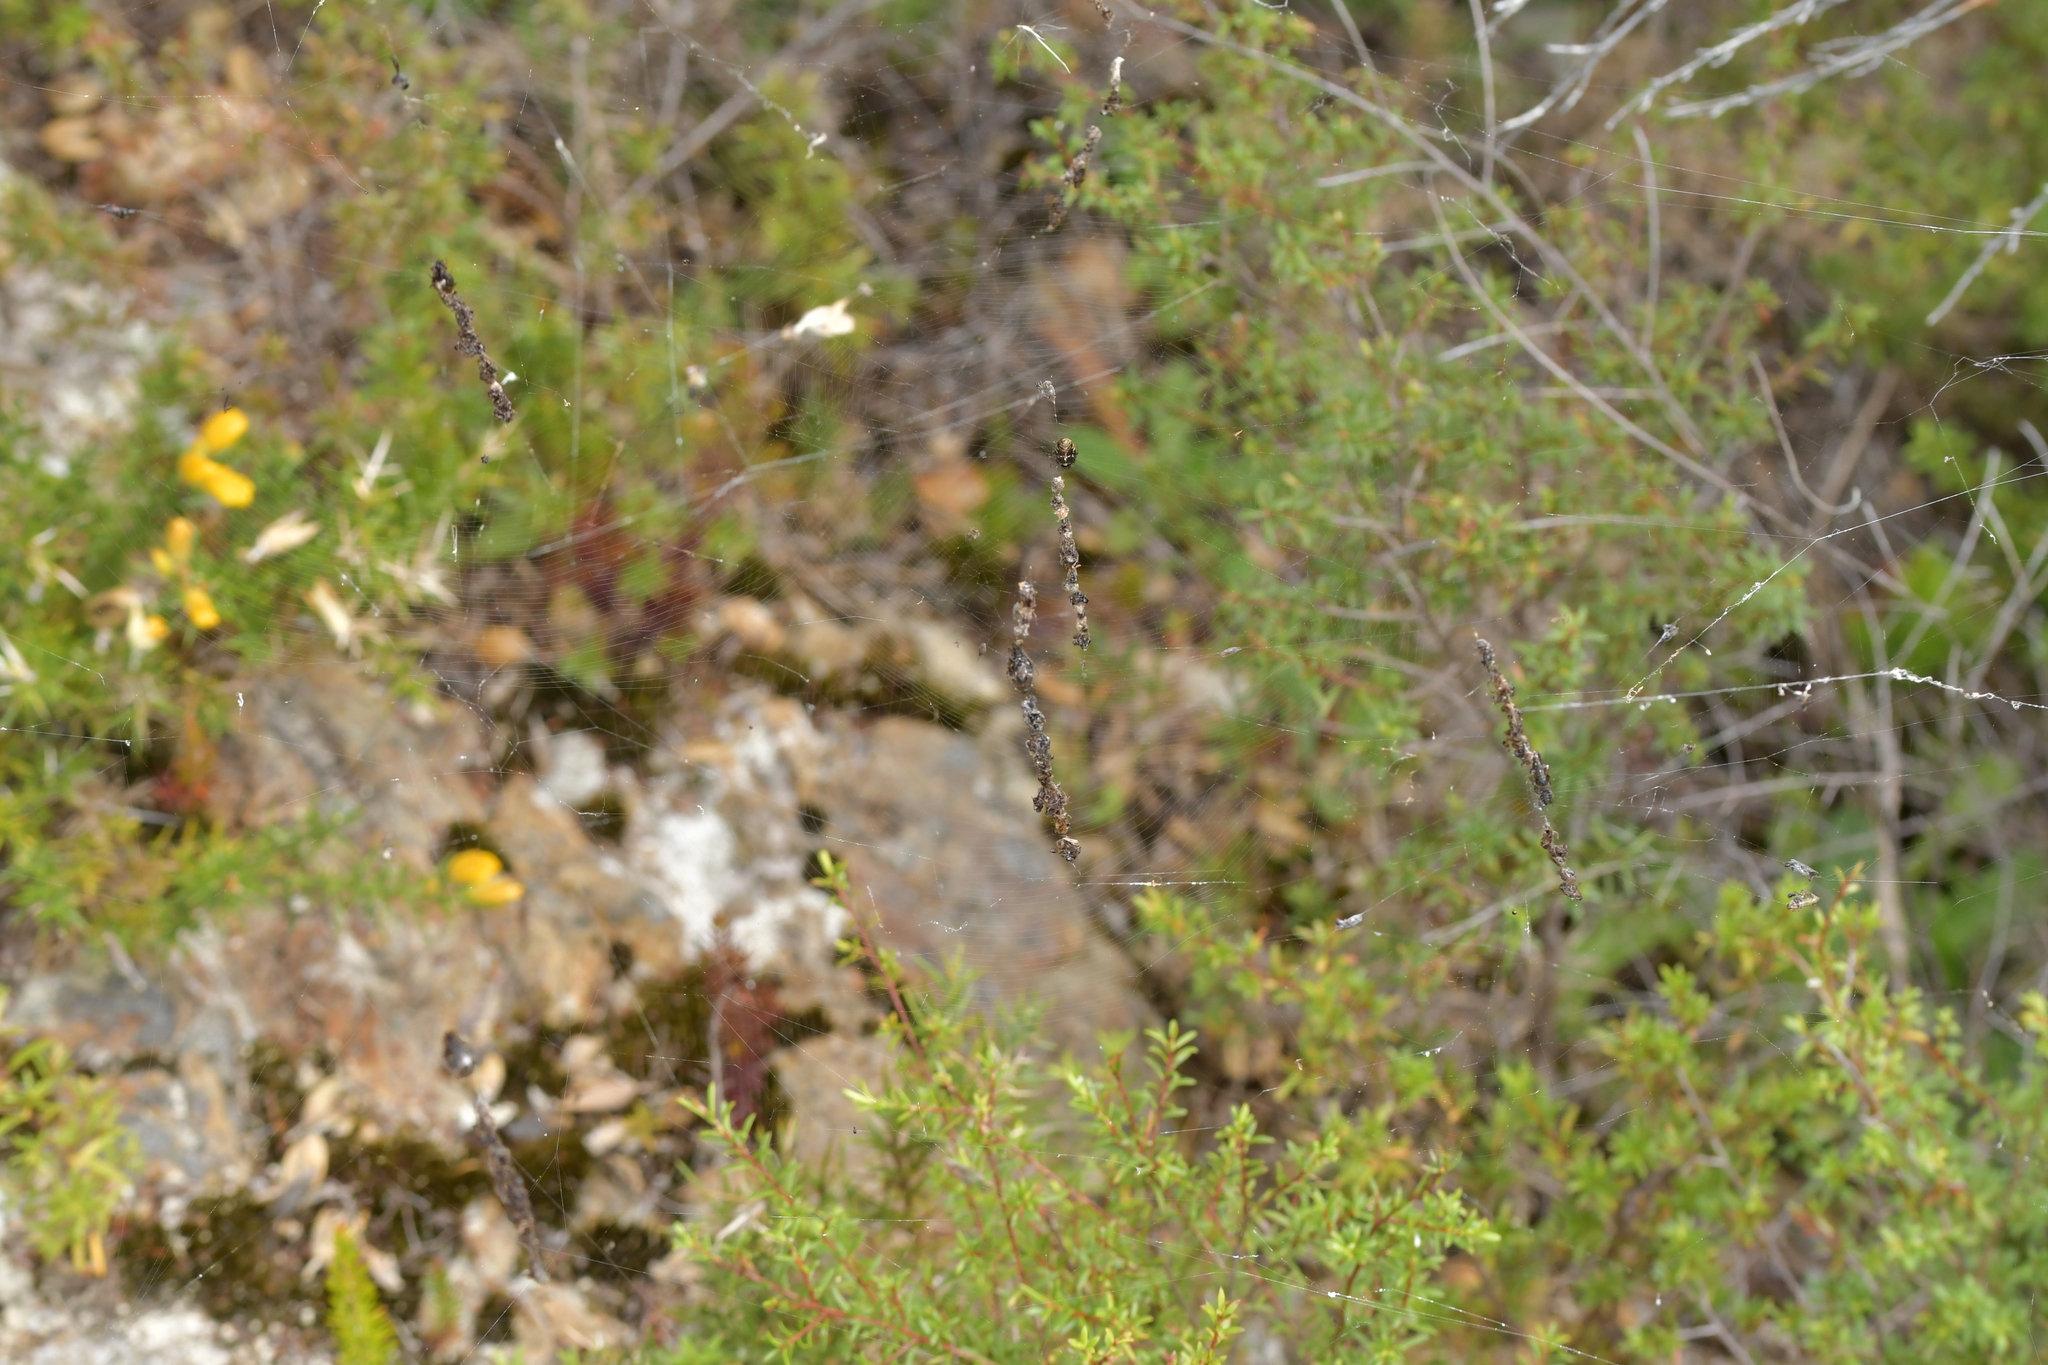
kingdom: Animalia
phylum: Arthropoda
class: Arachnida
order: Araneae
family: Araneidae
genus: Cyclosa
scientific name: Cyclosa trilobata
